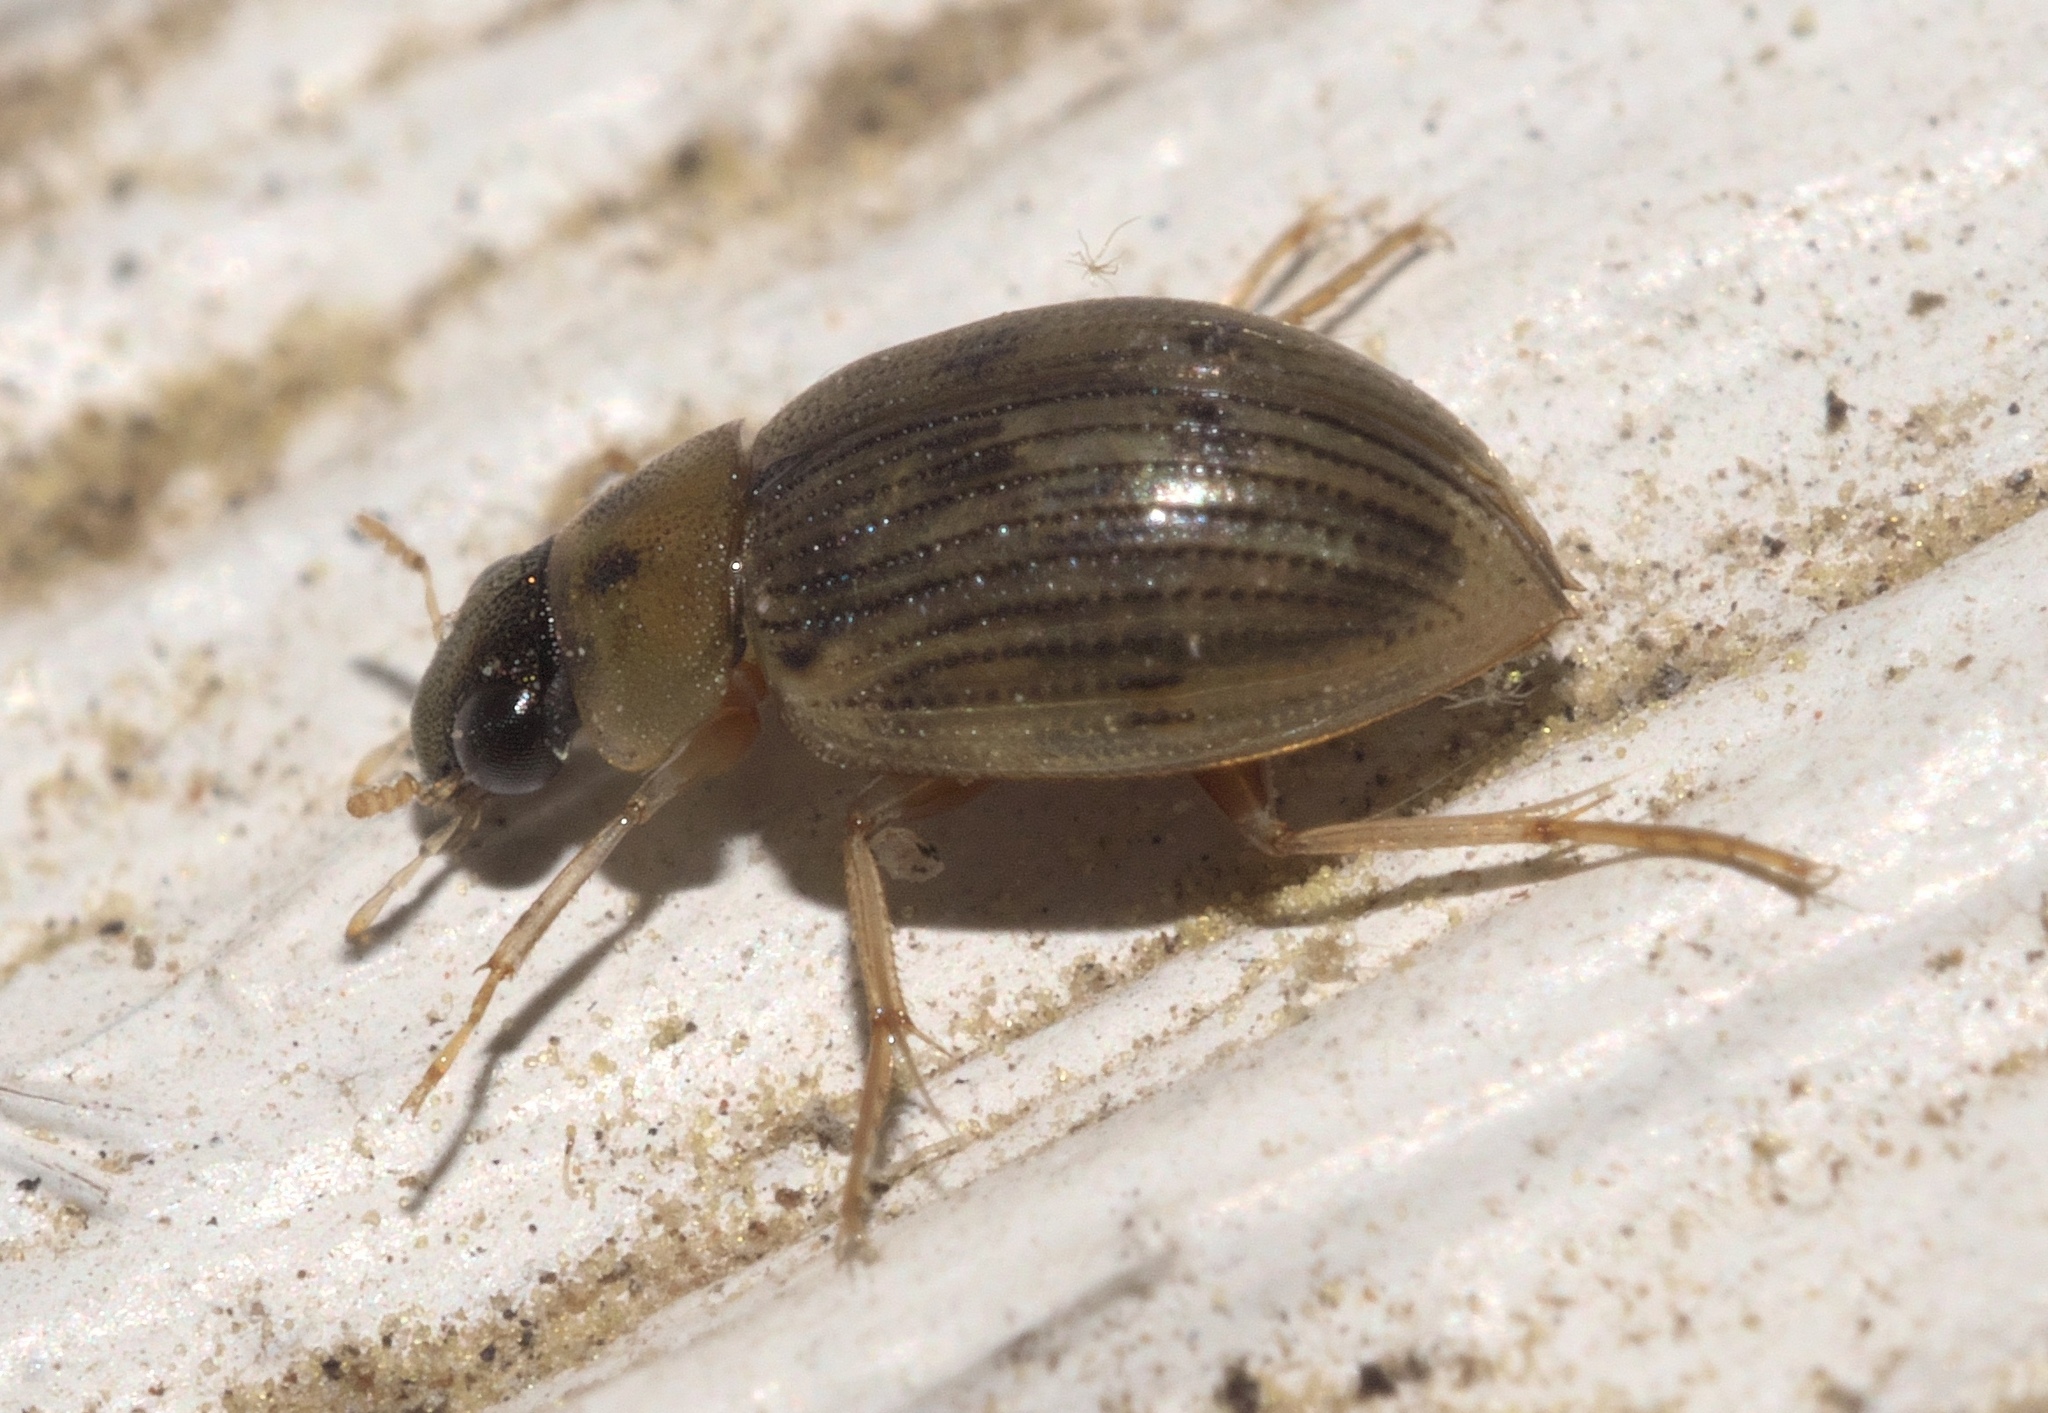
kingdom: Animalia
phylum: Arthropoda
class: Insecta
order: Coleoptera
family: Hydrophilidae
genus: Berosus
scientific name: Berosus aculeatus
